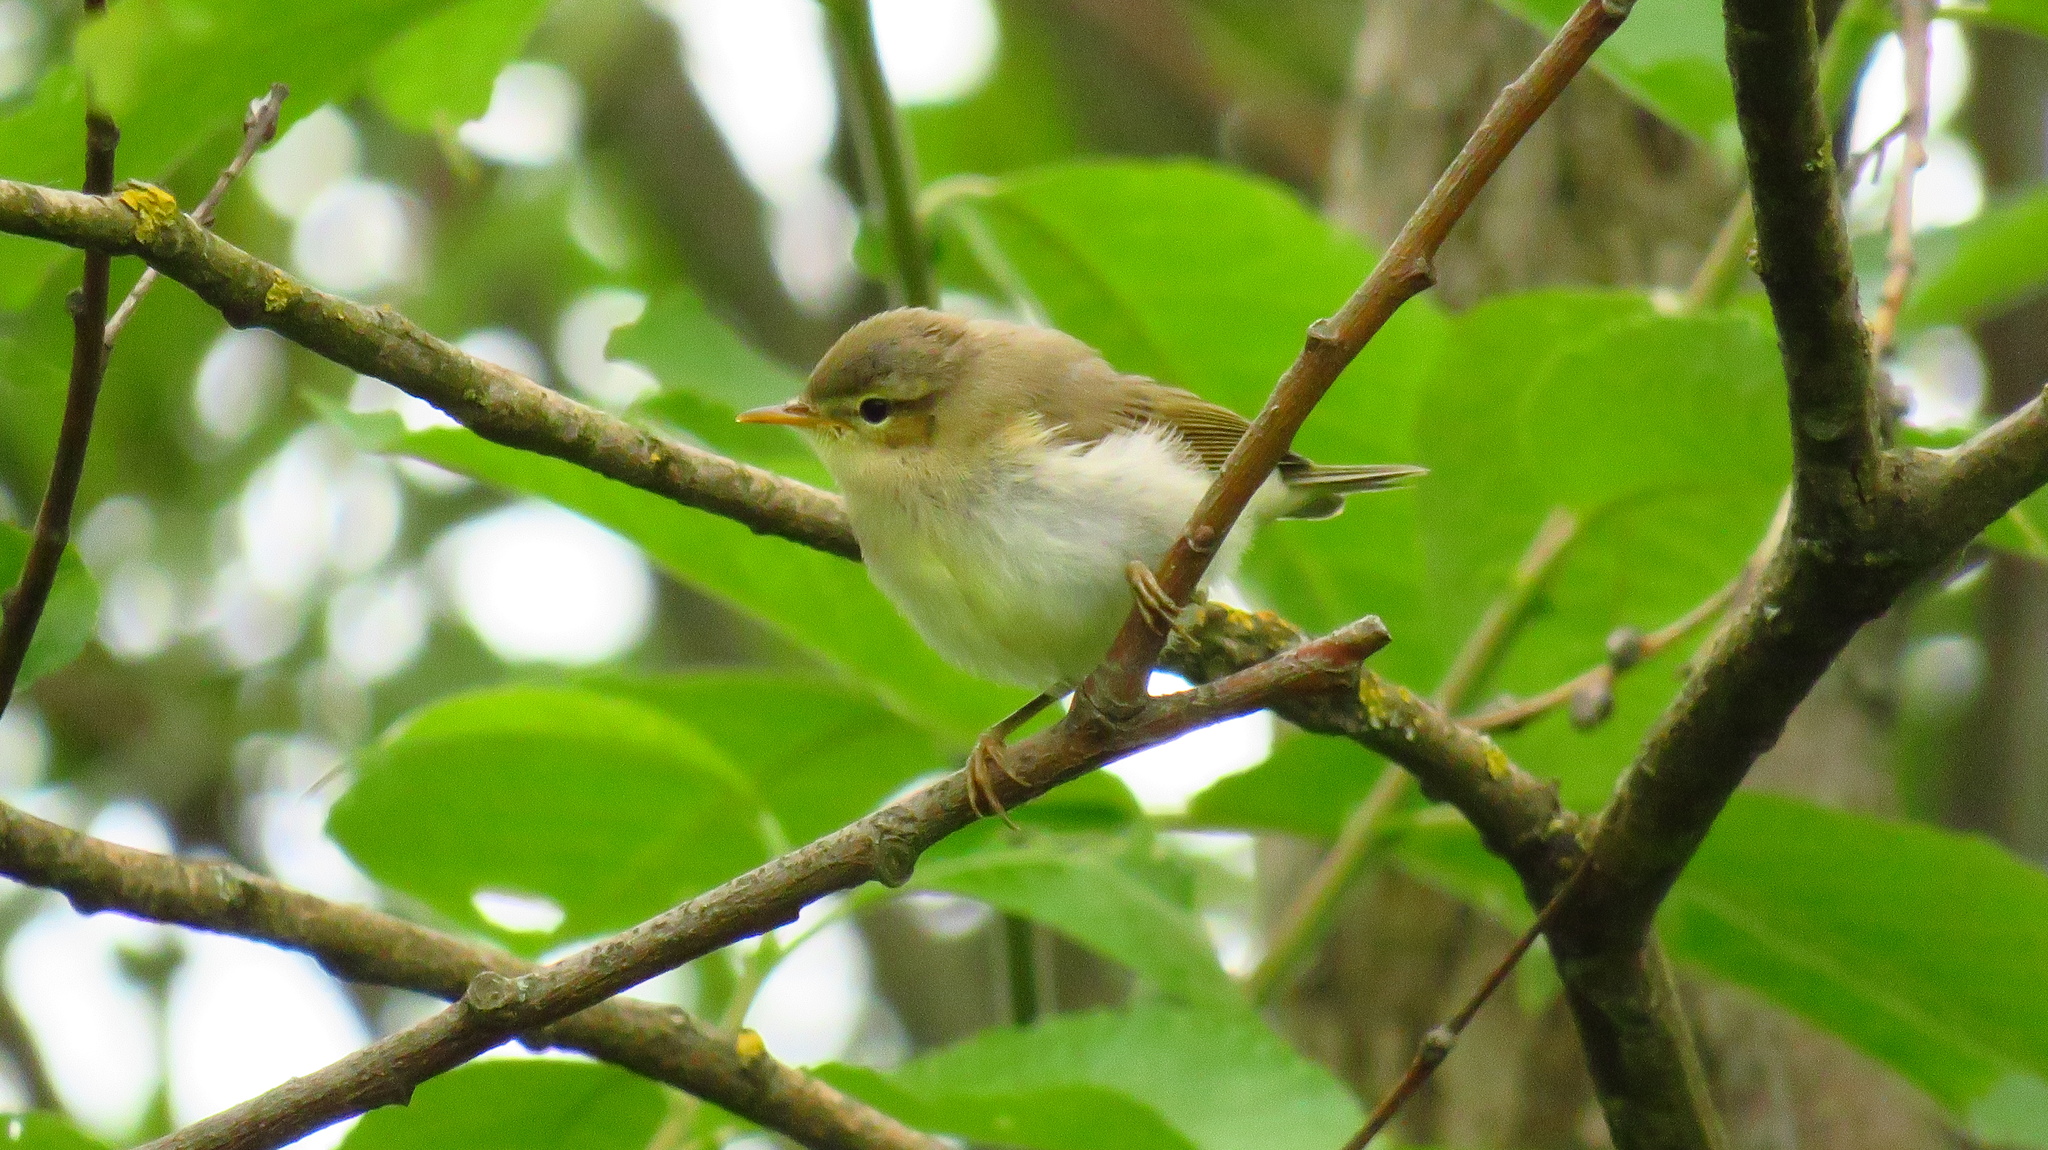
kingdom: Animalia
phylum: Chordata
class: Aves
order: Passeriformes
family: Phylloscopidae
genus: Phylloscopus
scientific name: Phylloscopus trochilus
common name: Willow warbler
